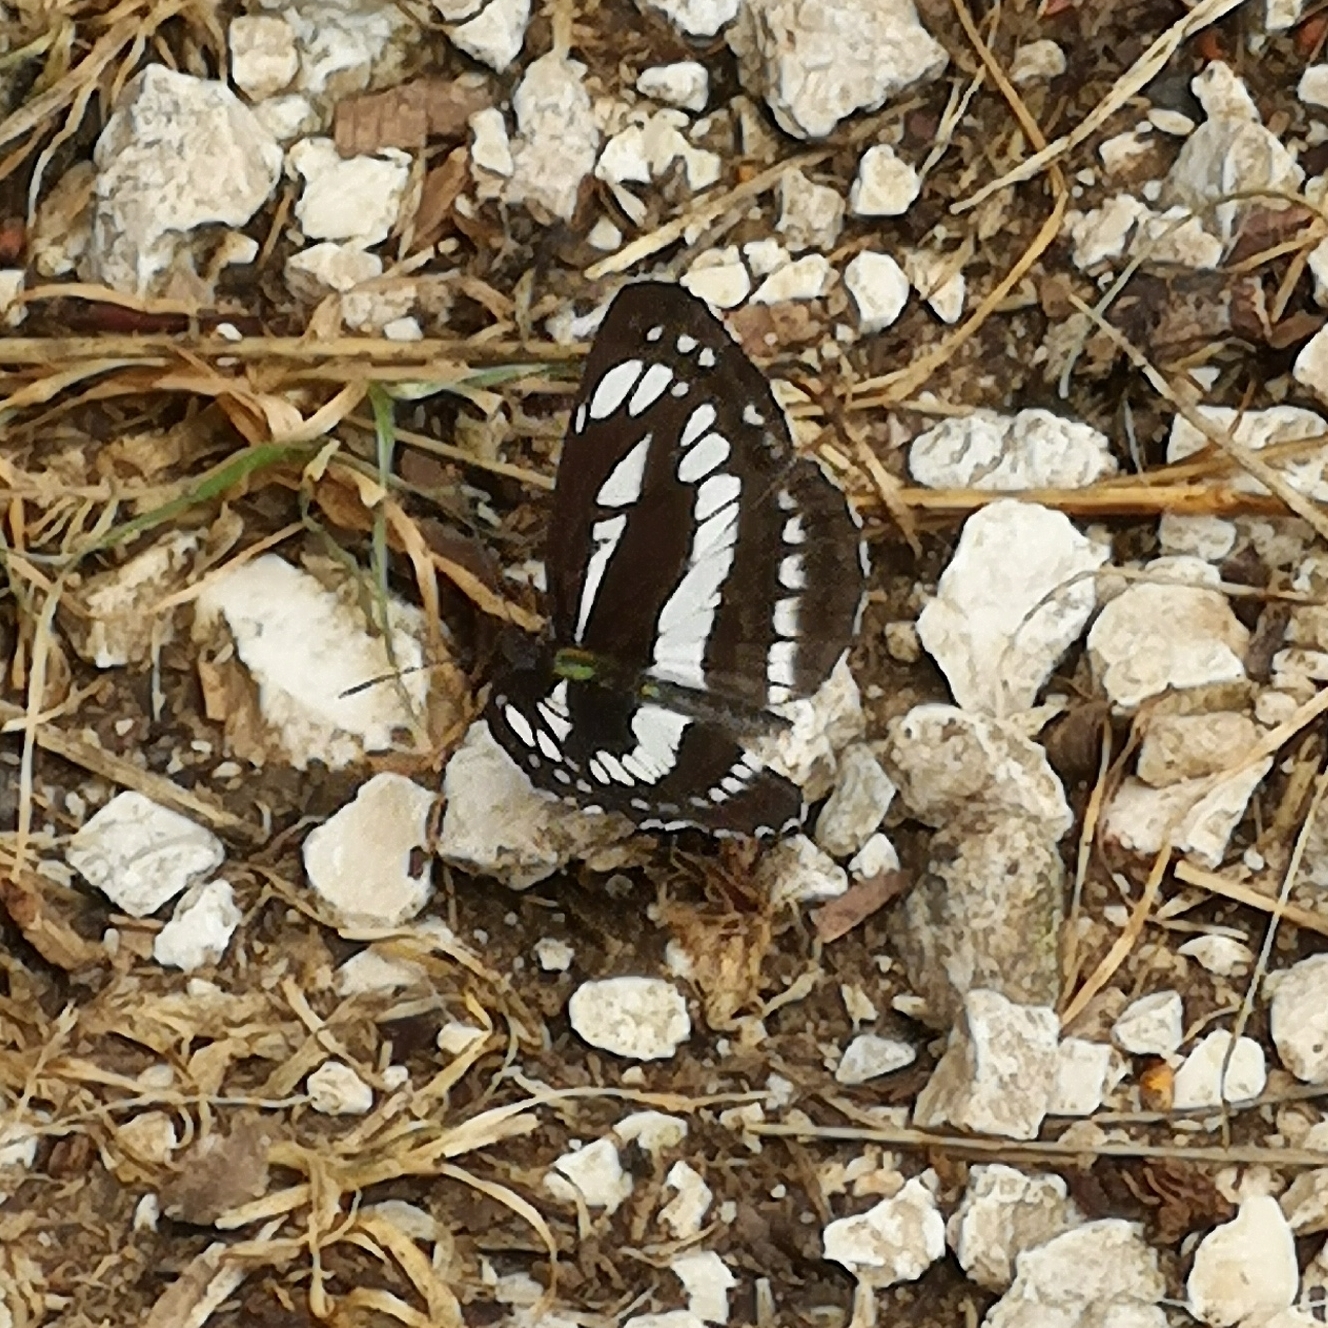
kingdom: Animalia
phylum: Arthropoda
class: Insecta
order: Lepidoptera
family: Nymphalidae
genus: Neptis
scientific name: Neptis sappho
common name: Common glider
